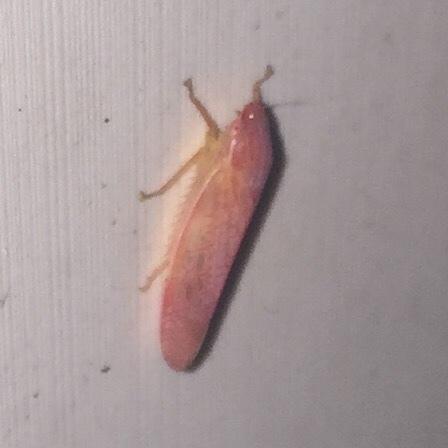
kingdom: Animalia
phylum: Arthropoda
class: Insecta
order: Hemiptera
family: Cicadellidae
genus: Gyponana
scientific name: Gyponana gladia
